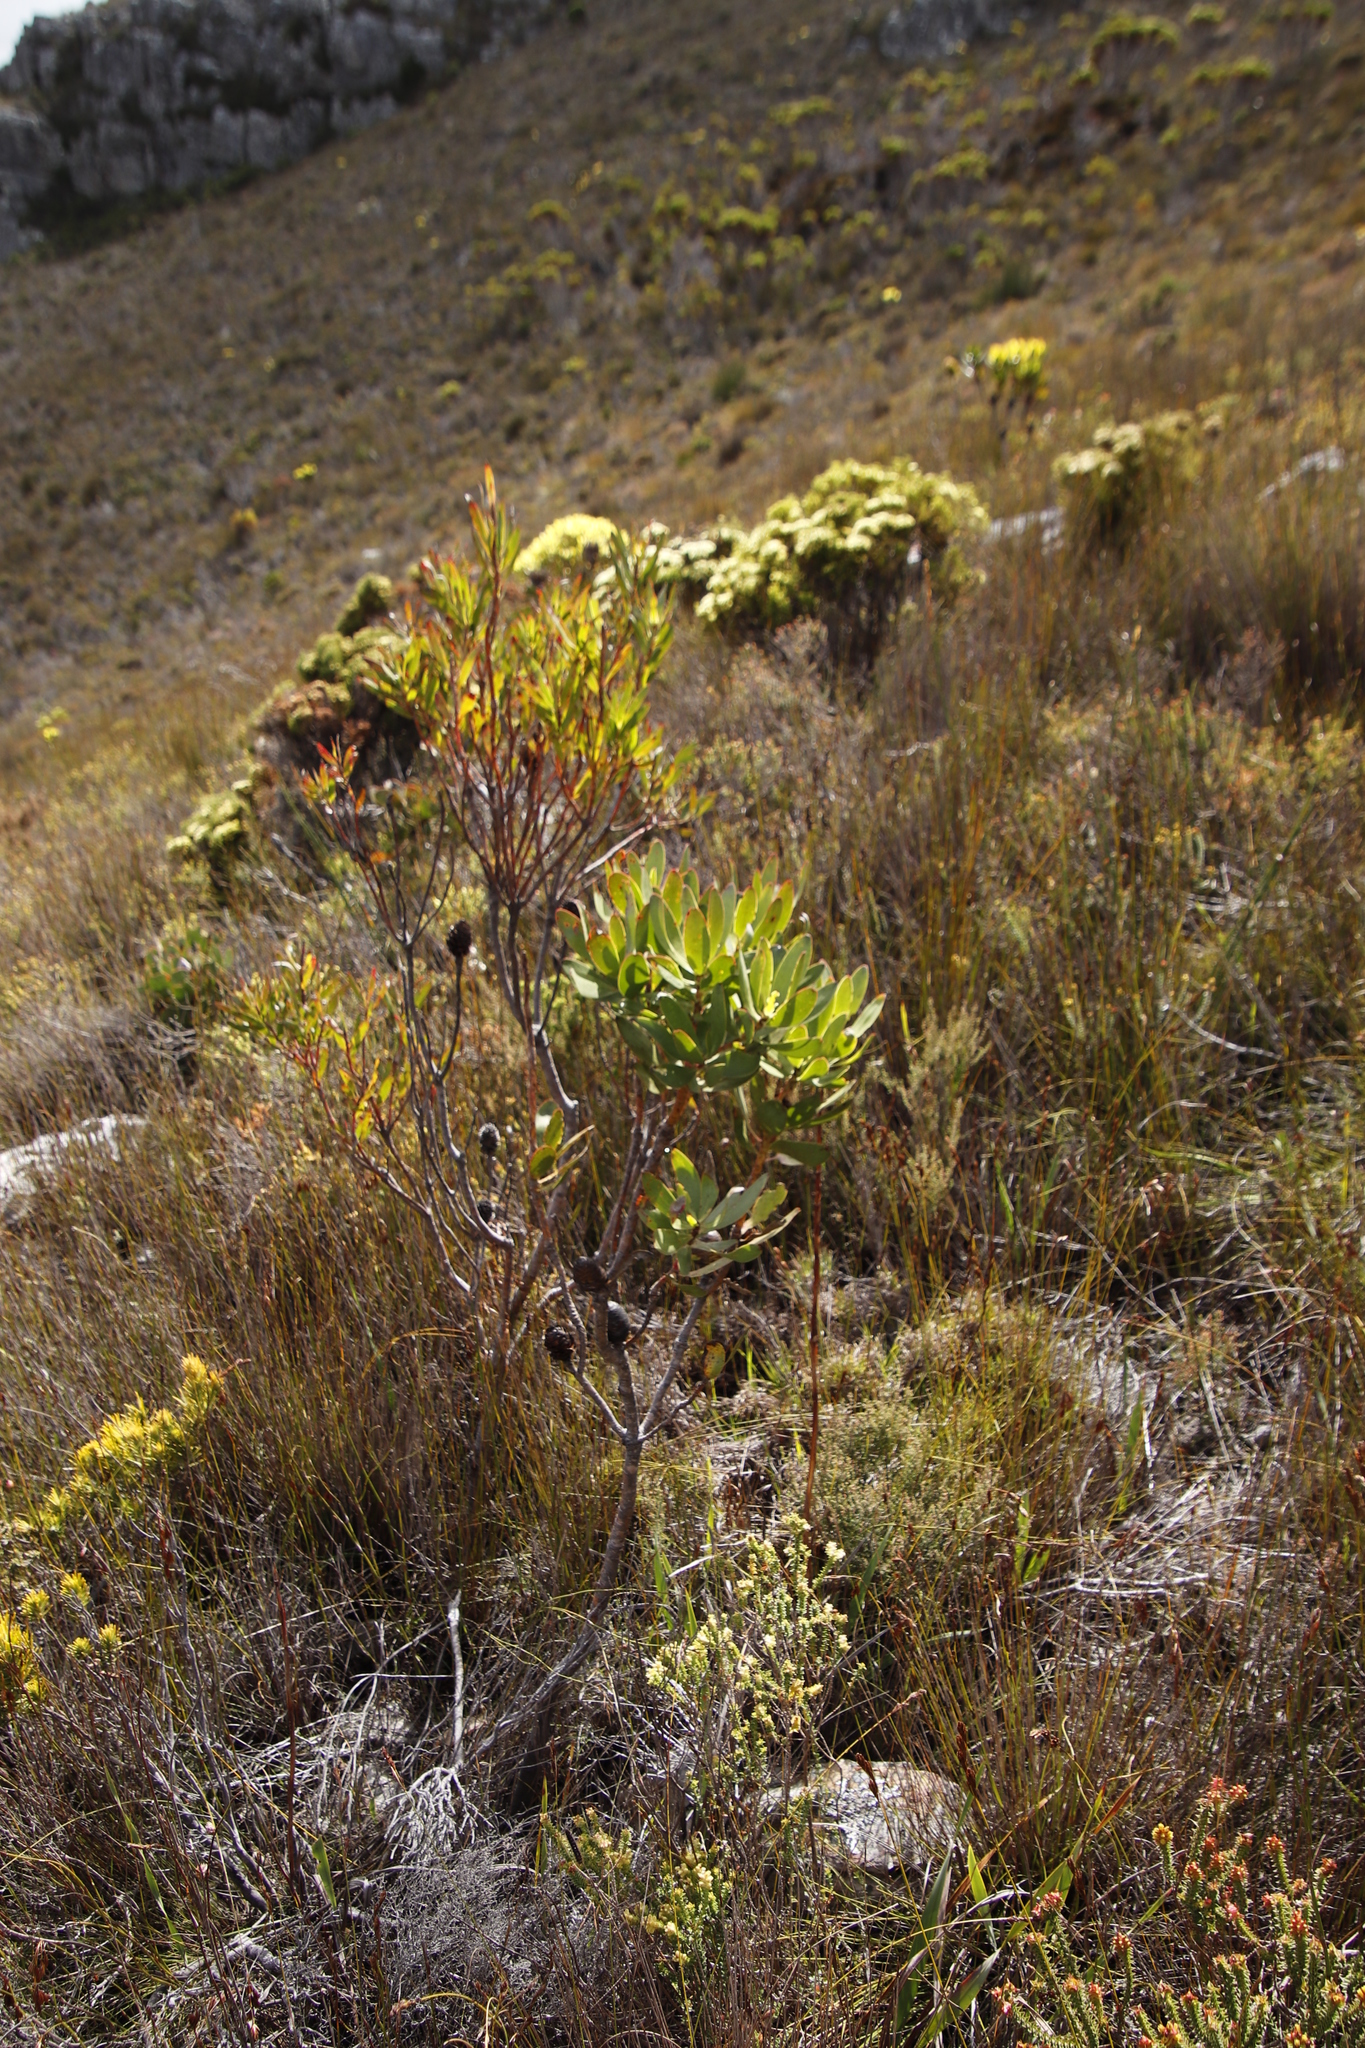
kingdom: Plantae
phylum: Tracheophyta
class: Magnoliopsida
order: Proteales
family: Proteaceae
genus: Leucadendron
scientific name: Leucadendron gandogeri
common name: Broad-leaf conebush
